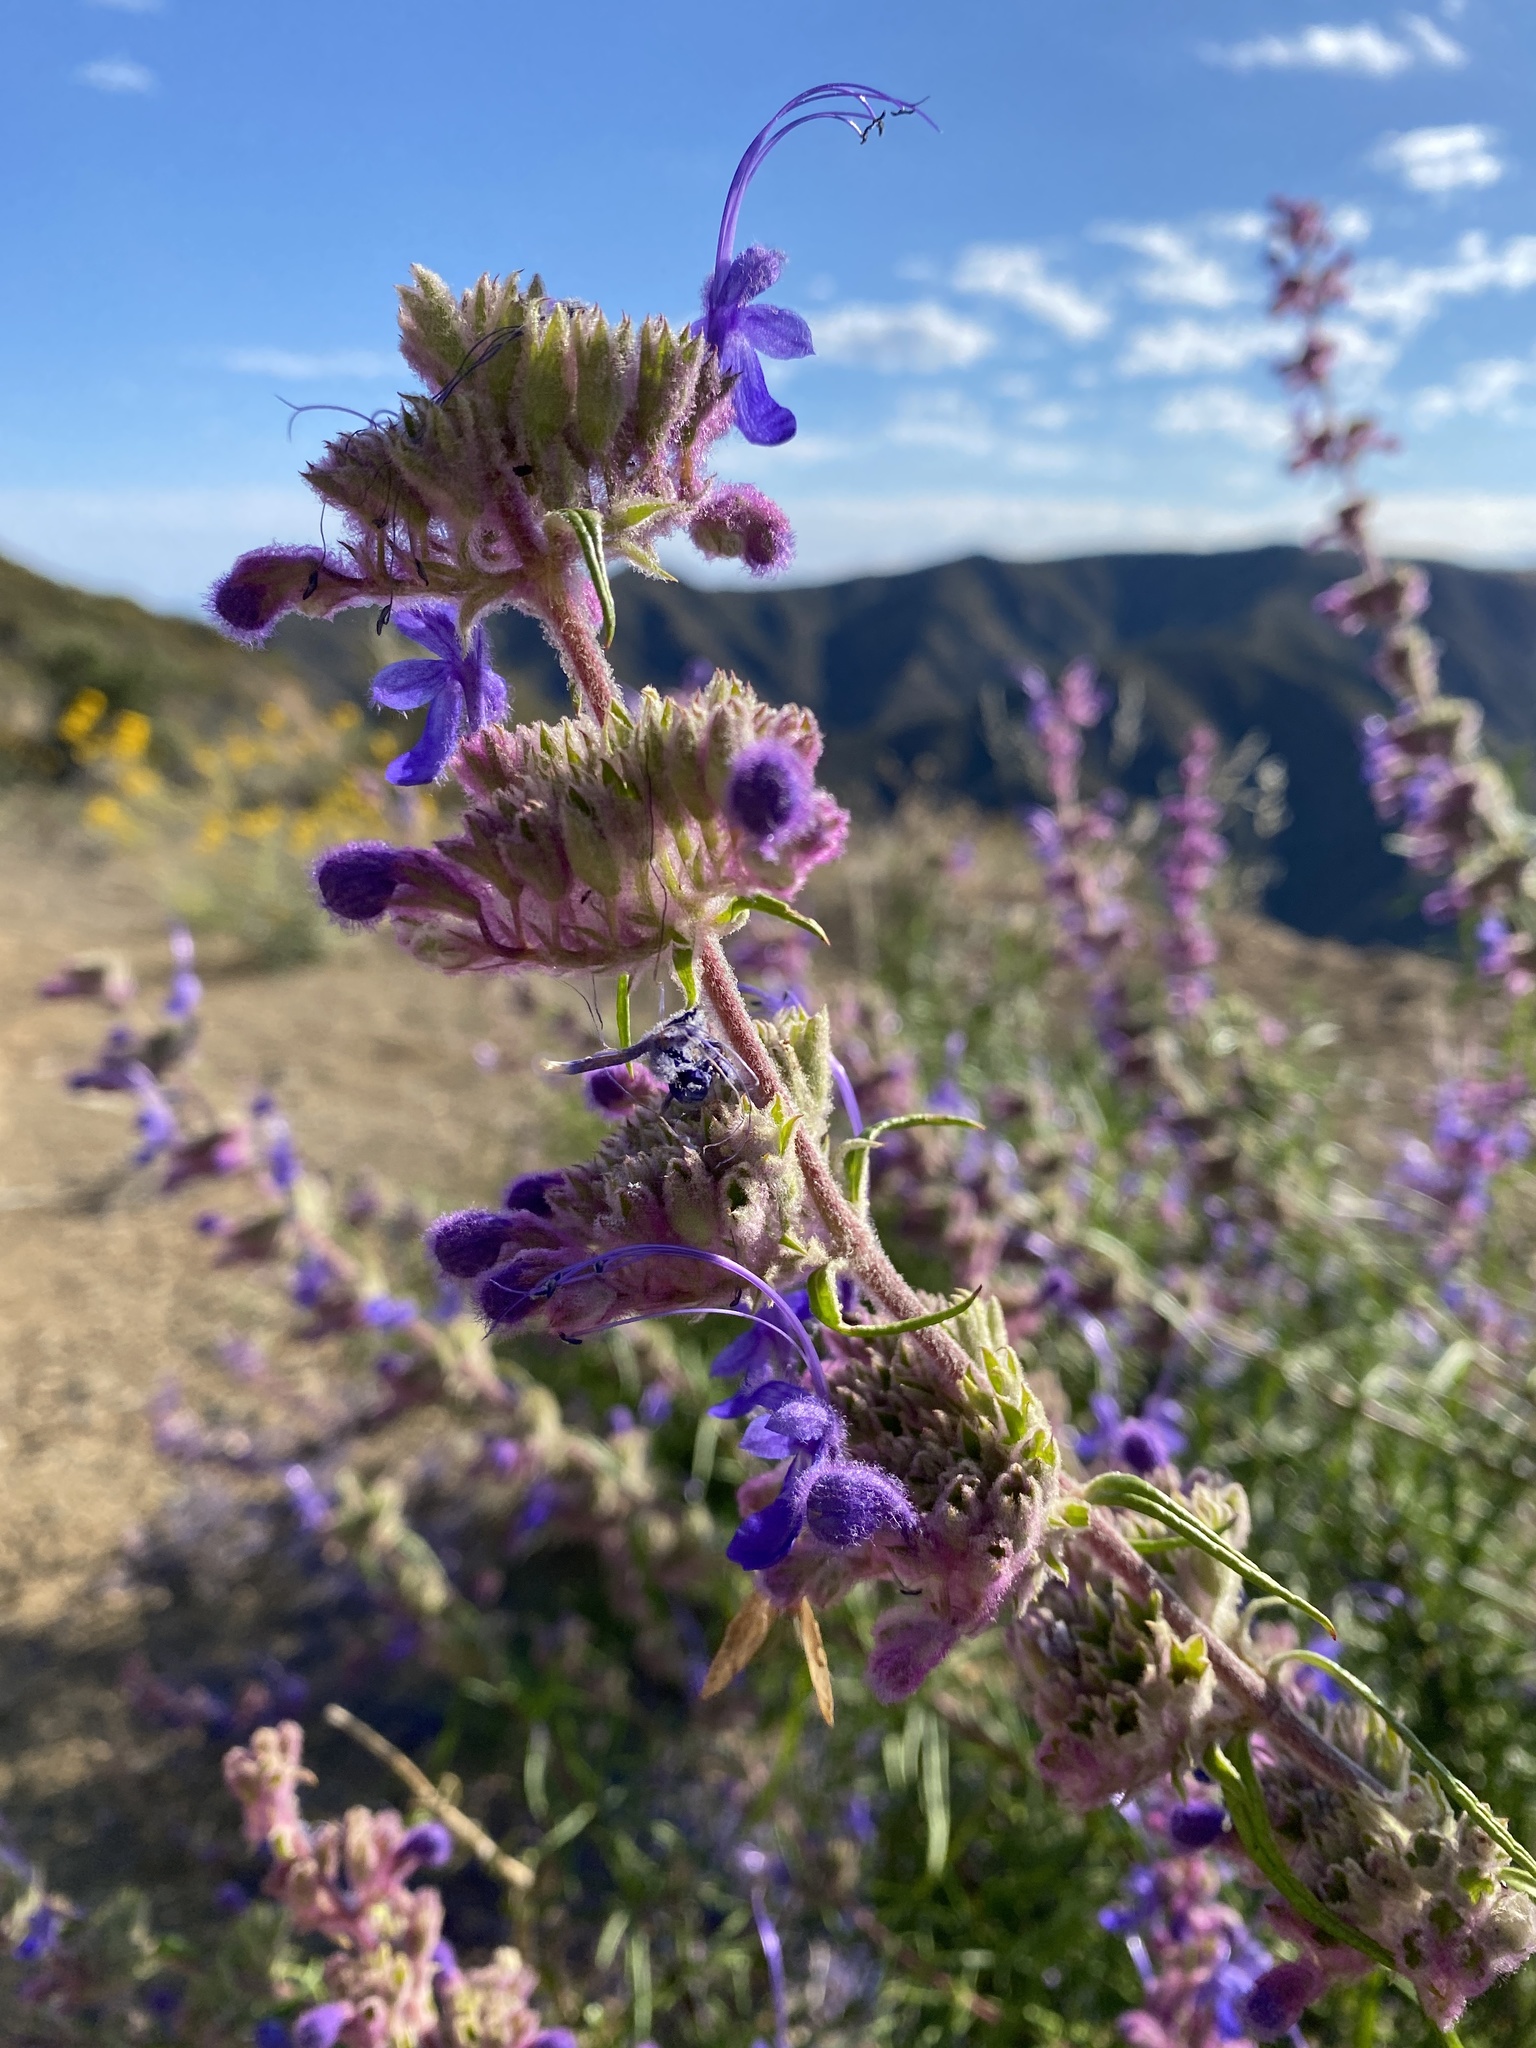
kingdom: Plantae
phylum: Tracheophyta
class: Magnoliopsida
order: Lamiales
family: Lamiaceae
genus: Trichostema
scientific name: Trichostema lanatum
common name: Woolly bluecurls
